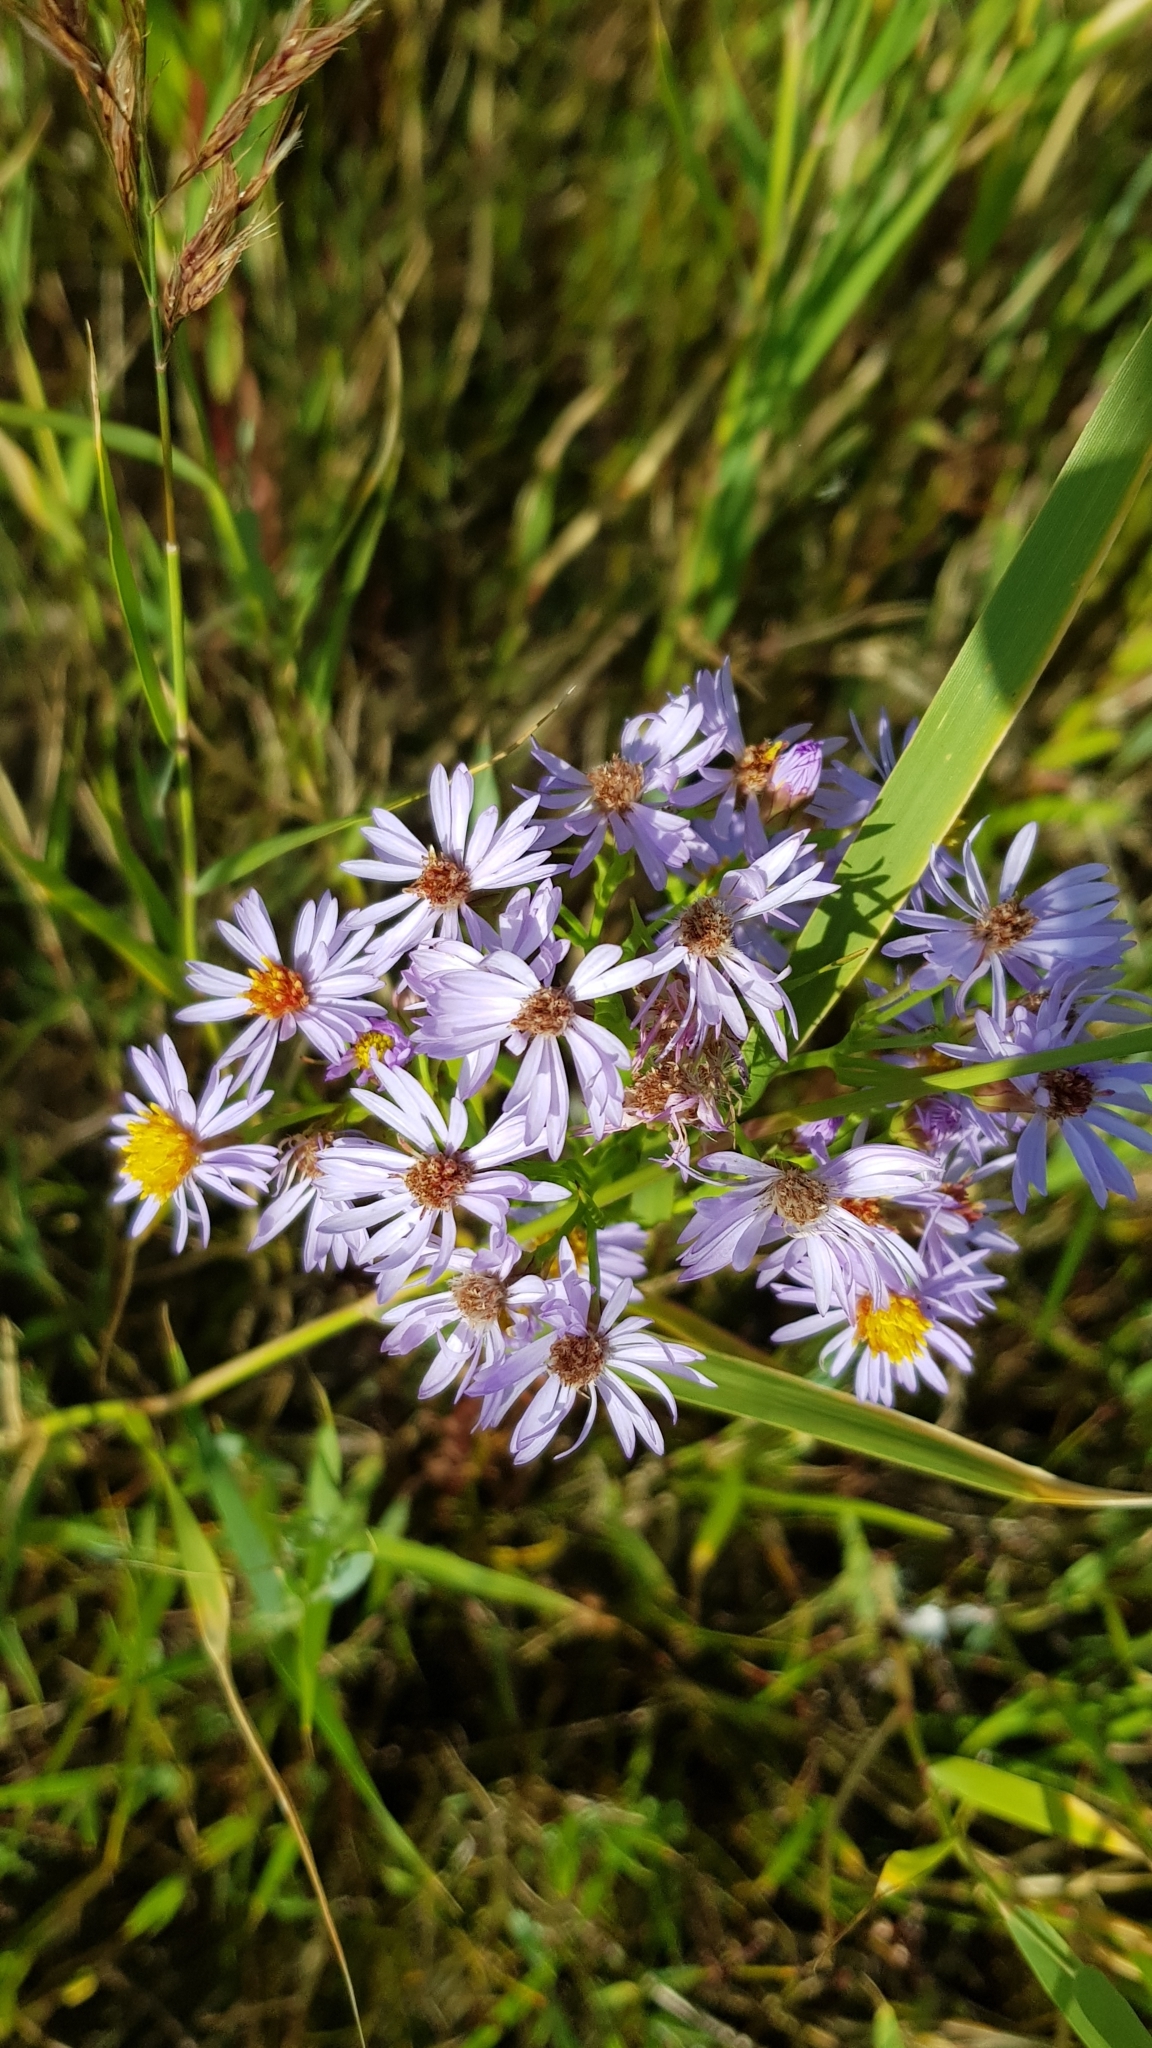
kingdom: Plantae
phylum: Tracheophyta
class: Magnoliopsida
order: Asterales
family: Asteraceae
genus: Tripolium
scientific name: Tripolium pannonicum
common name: Sea aster
